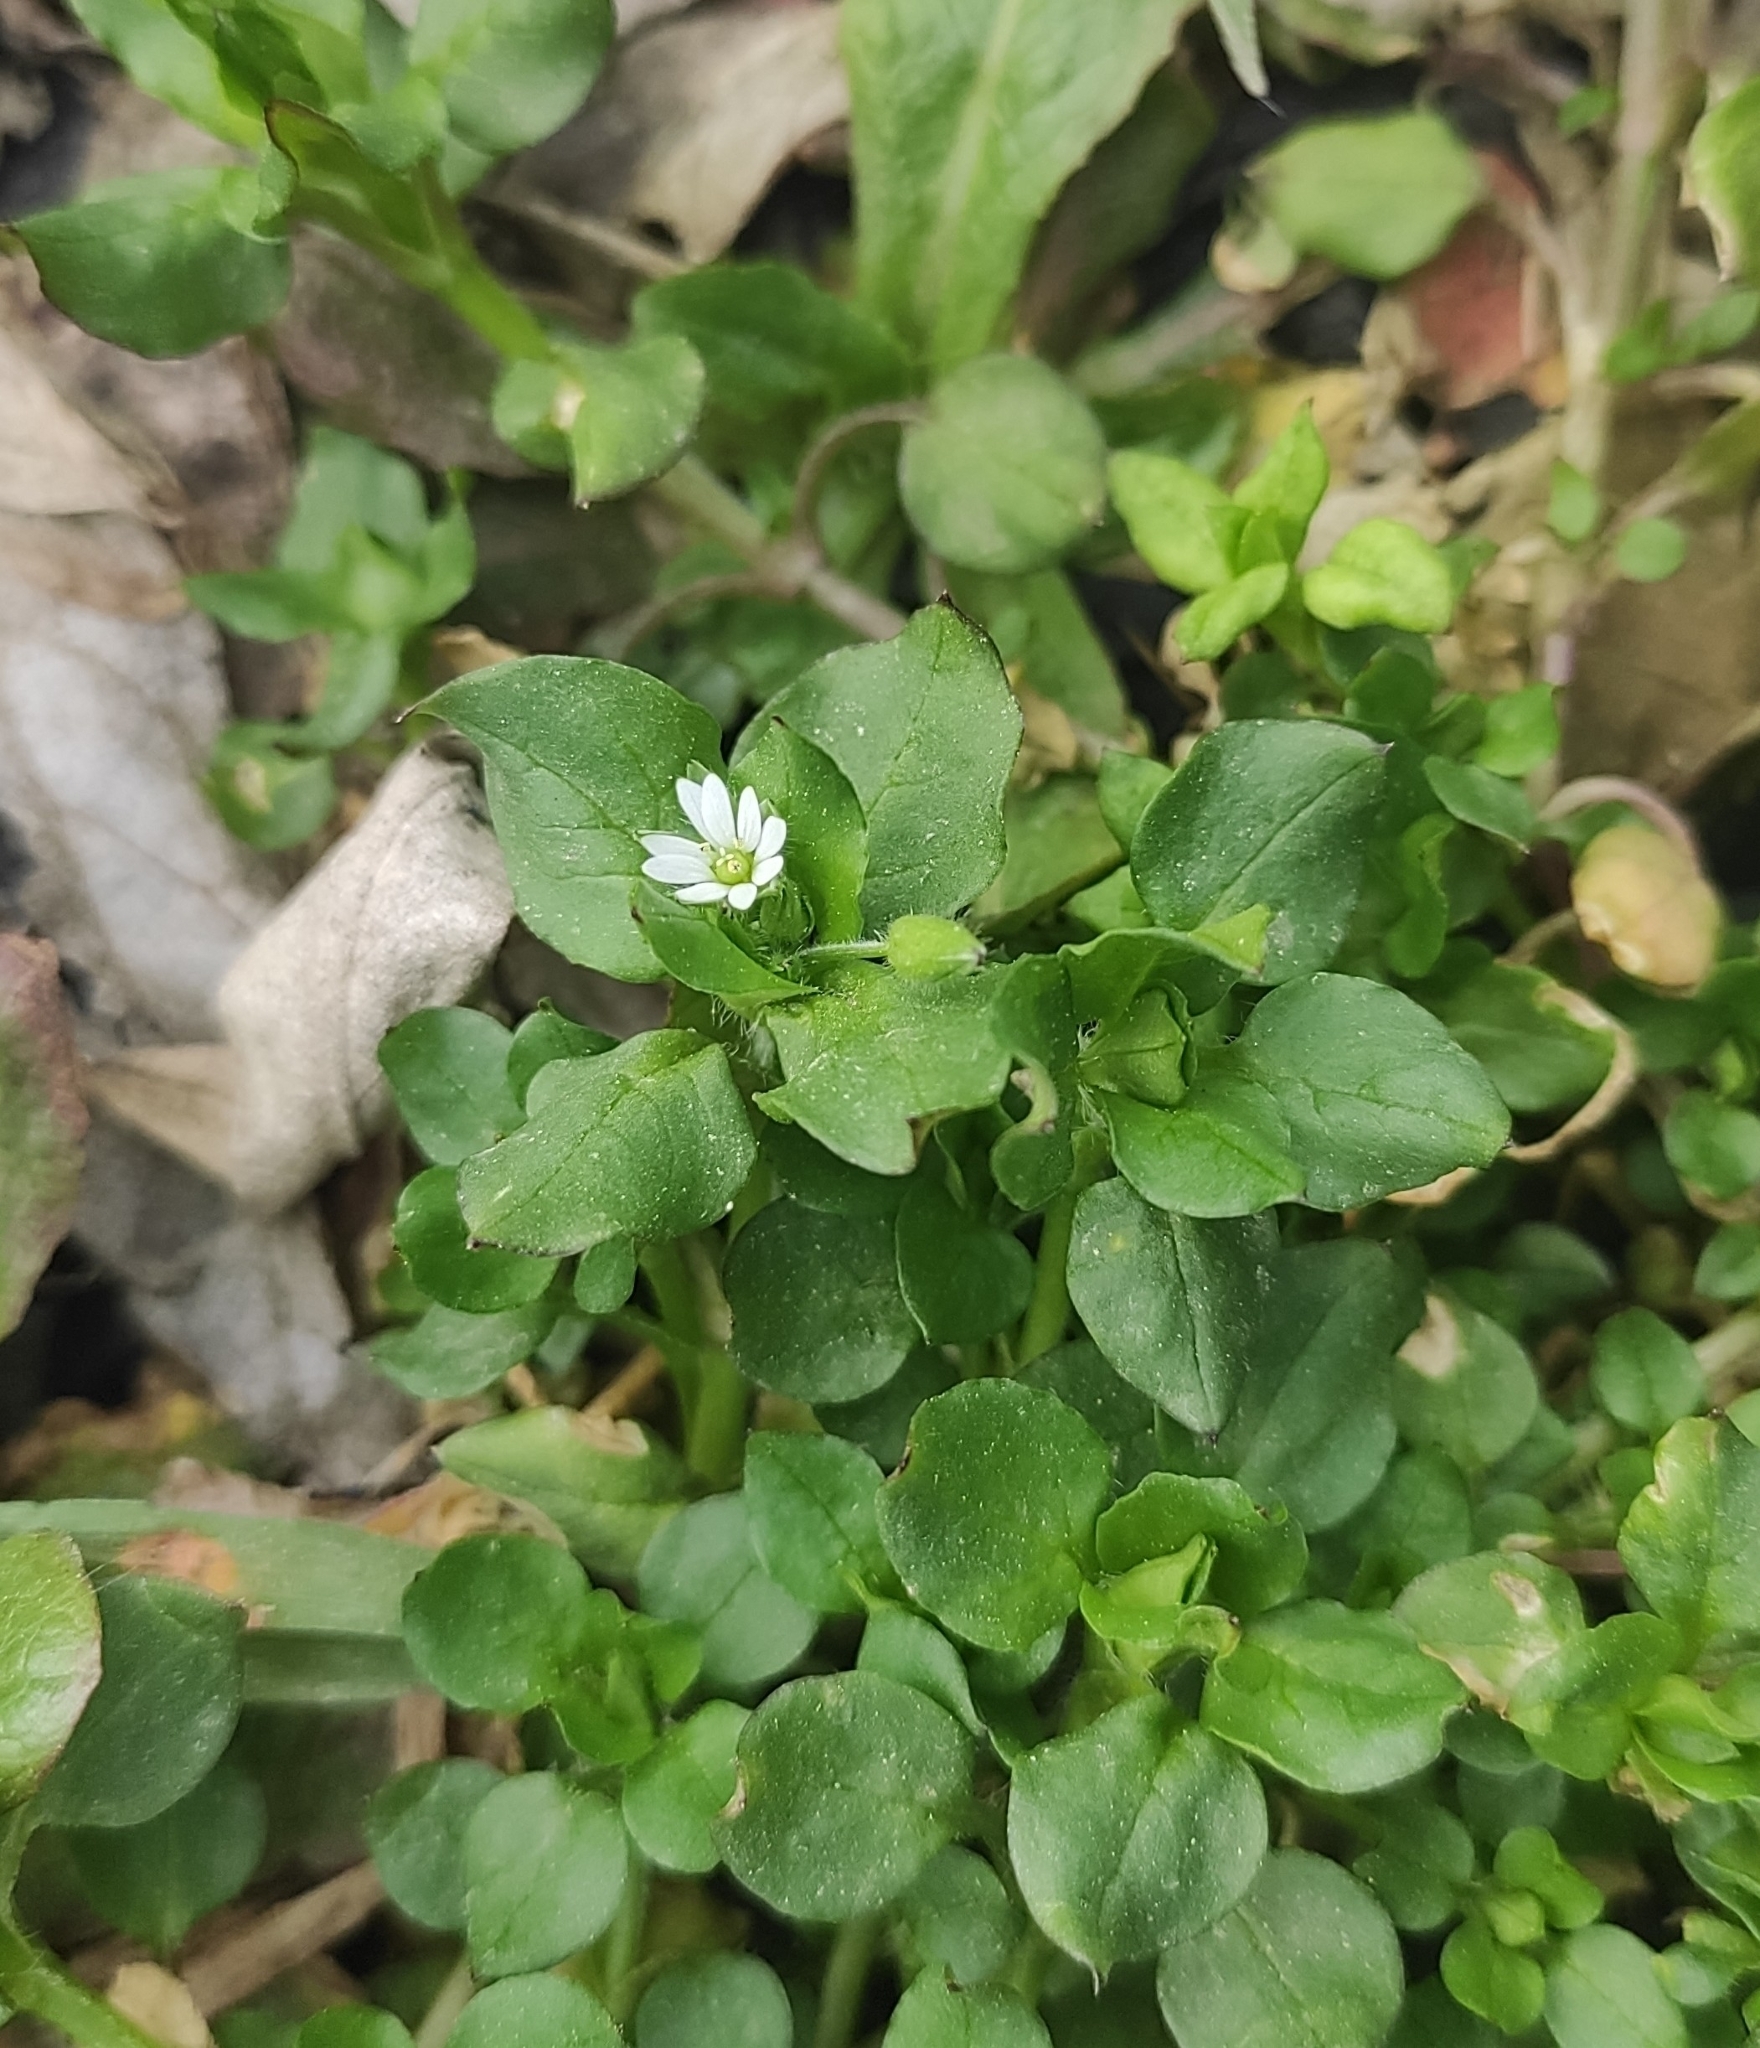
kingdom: Plantae
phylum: Tracheophyta
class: Magnoliopsida
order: Caryophyllales
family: Caryophyllaceae
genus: Stellaria
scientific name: Stellaria media
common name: Common chickweed
